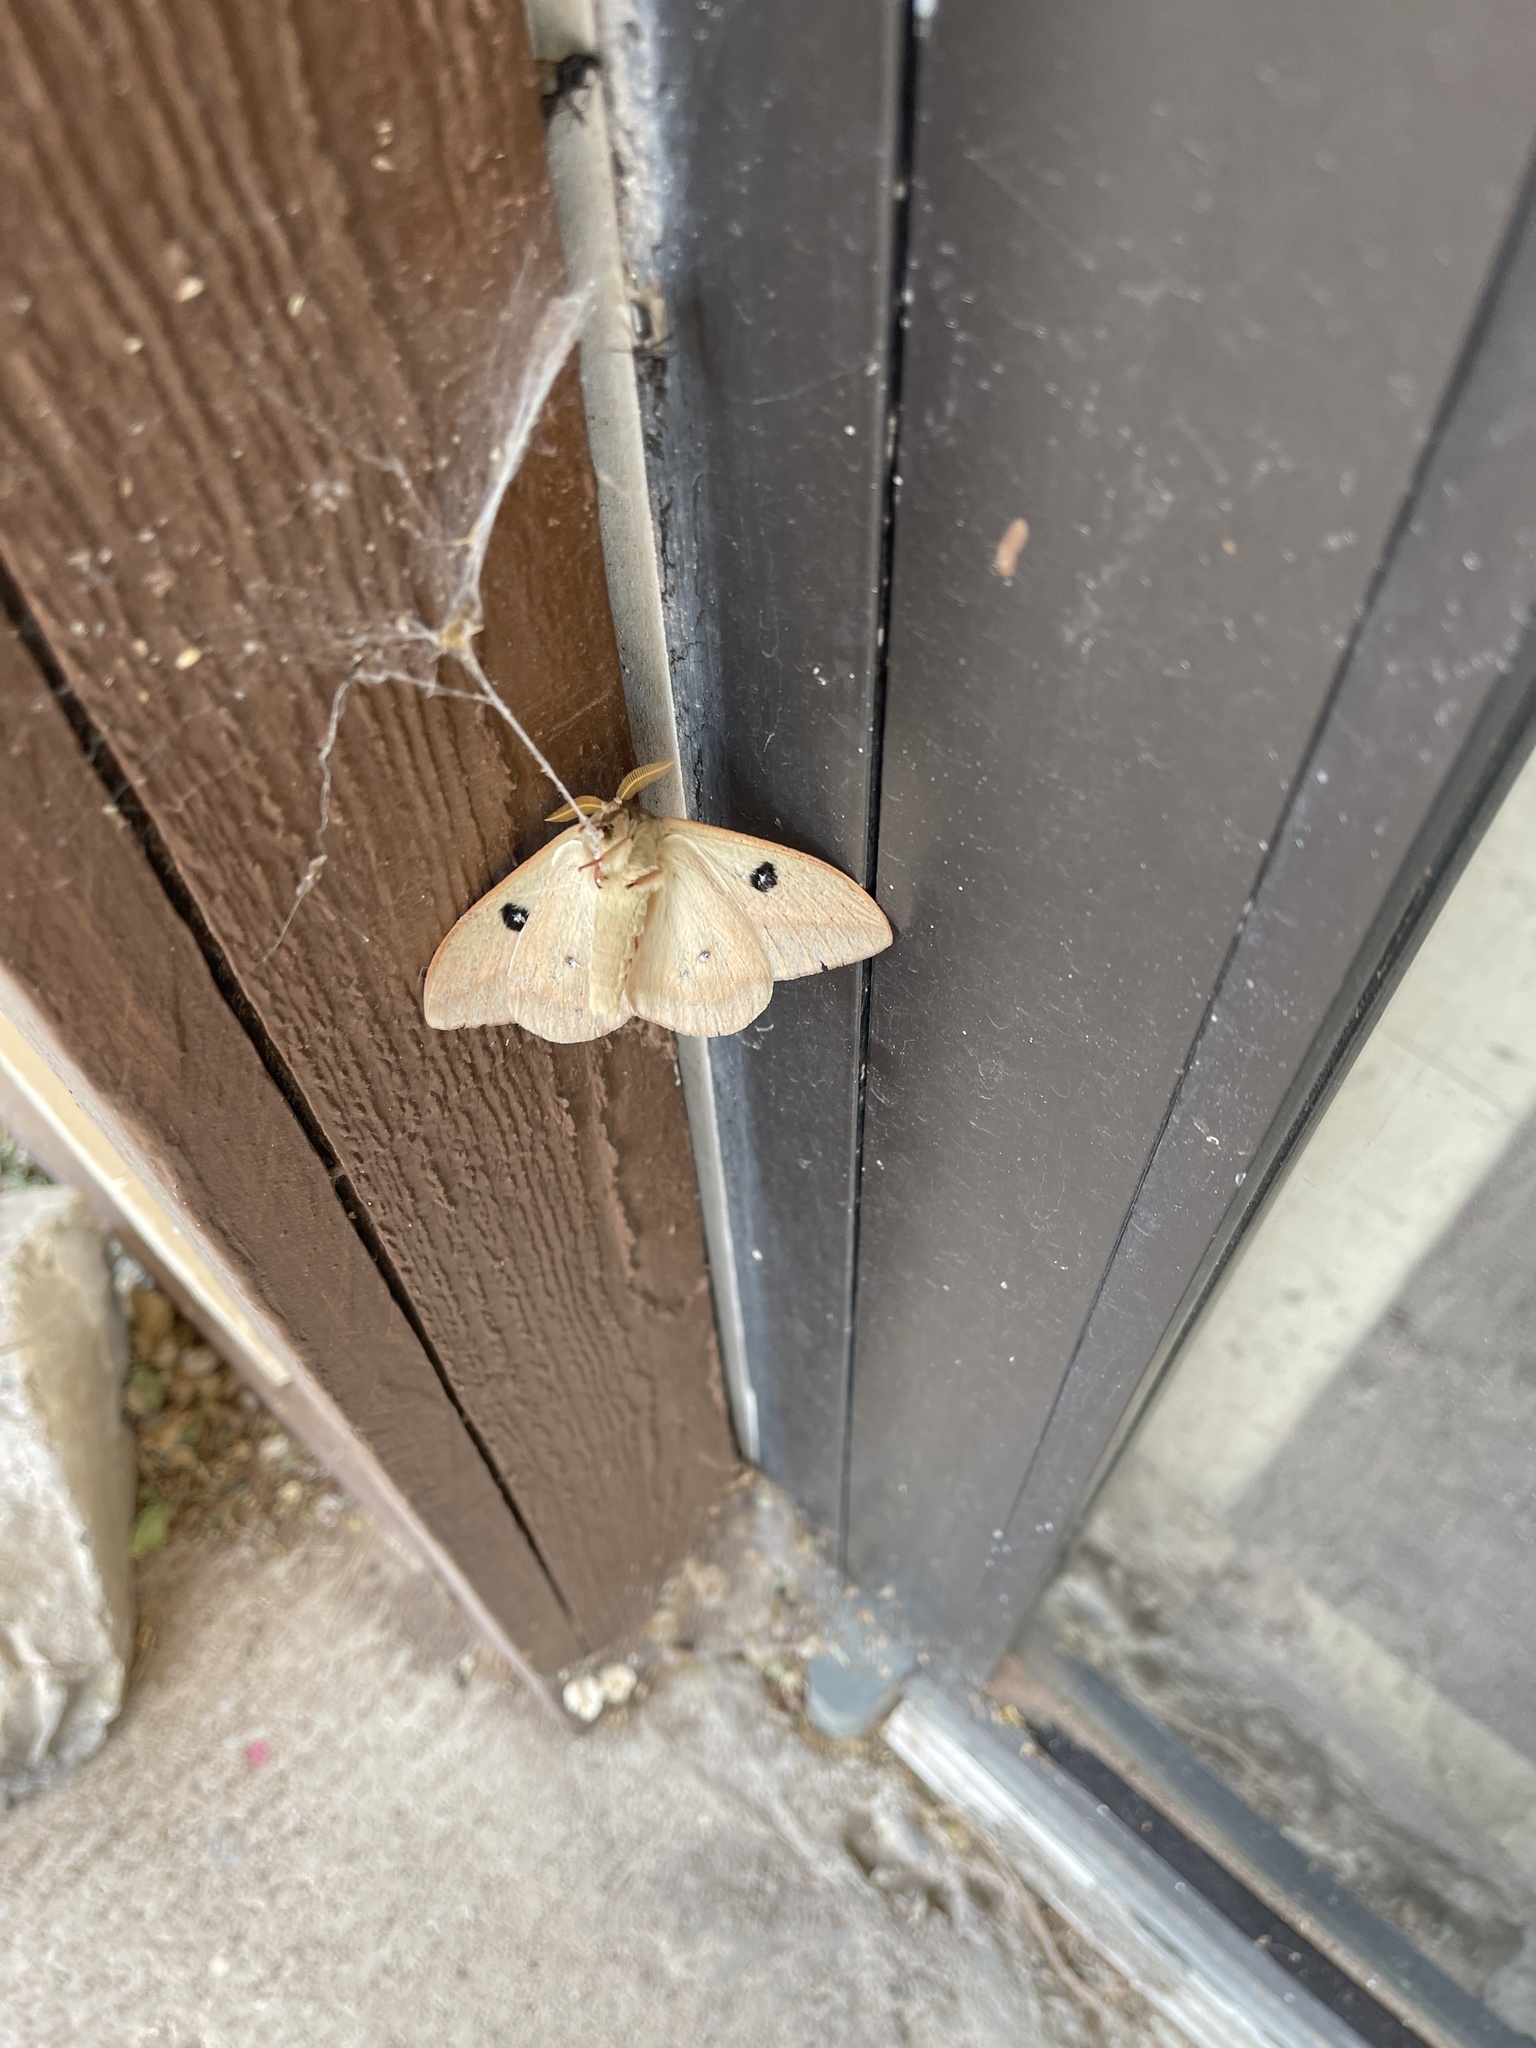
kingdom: Animalia
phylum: Arthropoda
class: Insecta
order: Lepidoptera
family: Saturniidae
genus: Automeris
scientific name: Automeris zephyria
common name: Zephyr eyed silkmoth
